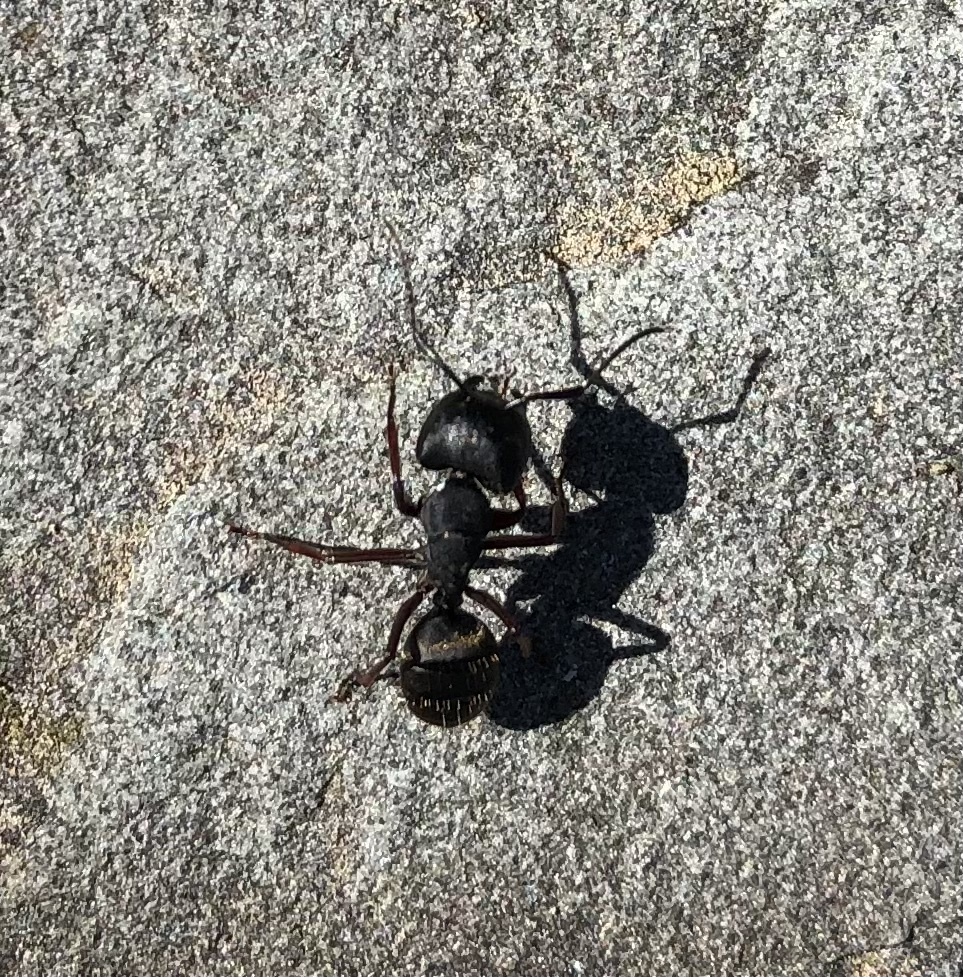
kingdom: Animalia
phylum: Arthropoda
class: Insecta
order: Hymenoptera
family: Formicidae
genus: Camponotus
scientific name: Camponotus modoc
